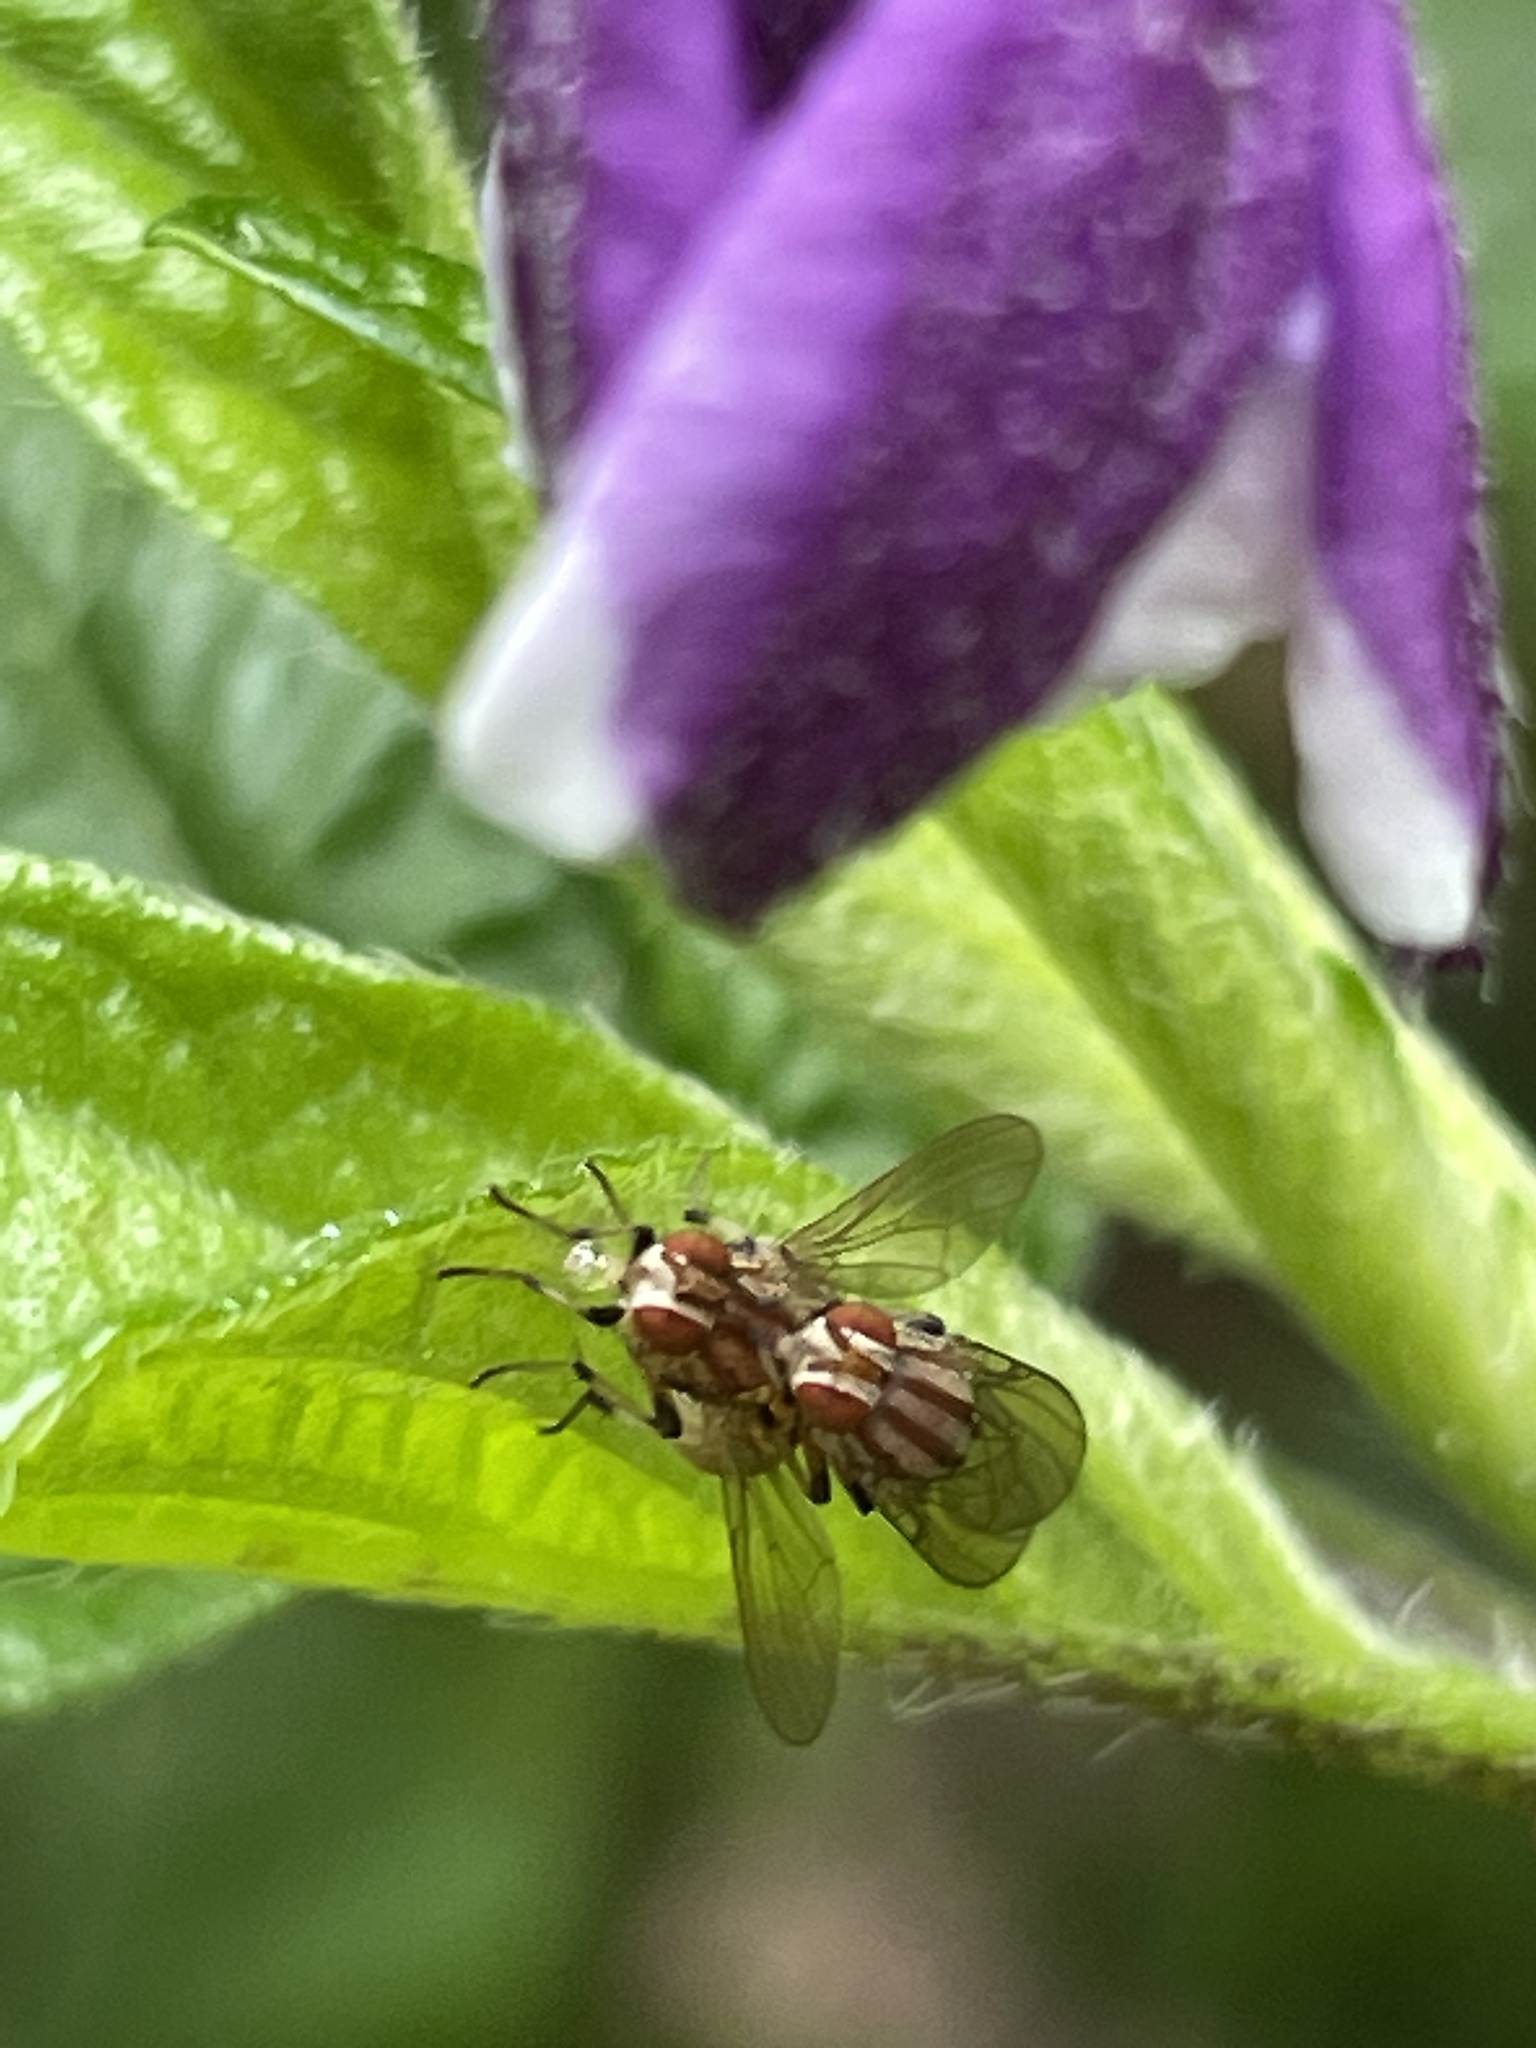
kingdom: Animalia
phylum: Arthropoda
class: Insecta
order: Diptera
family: Lauxaniidae
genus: Sapromyza
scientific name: Sapromyza brunneovittata
